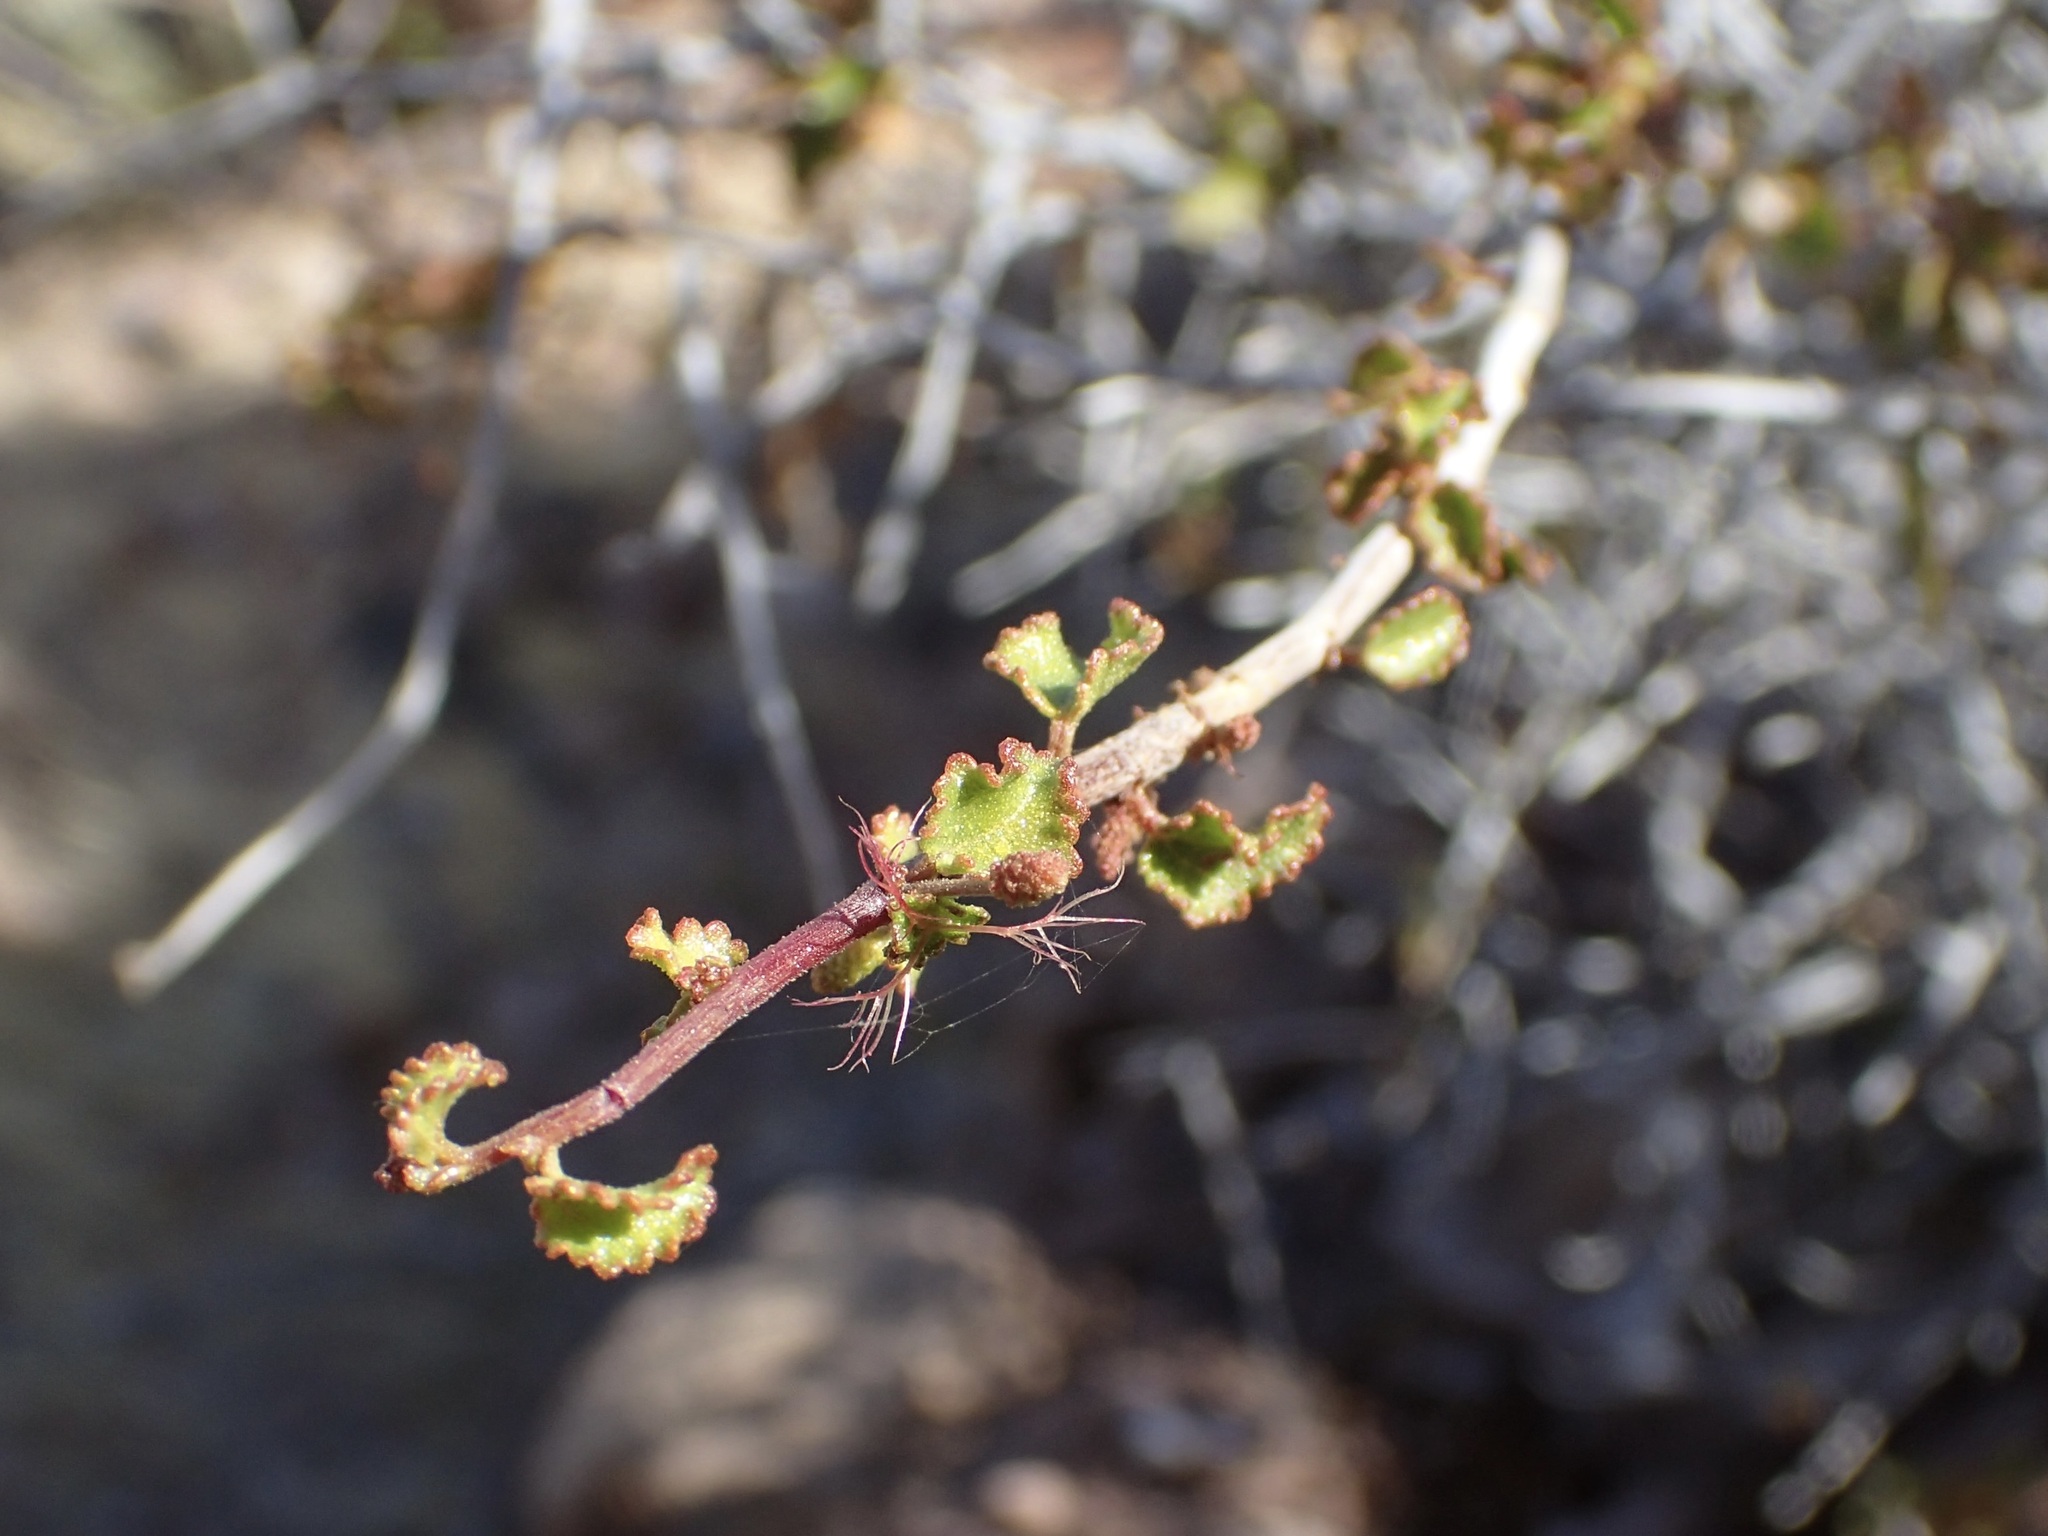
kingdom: Plantae
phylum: Tracheophyta
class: Magnoliopsida
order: Malpighiales
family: Euphorbiaceae
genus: Acalypha
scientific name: Acalypha saxicola
